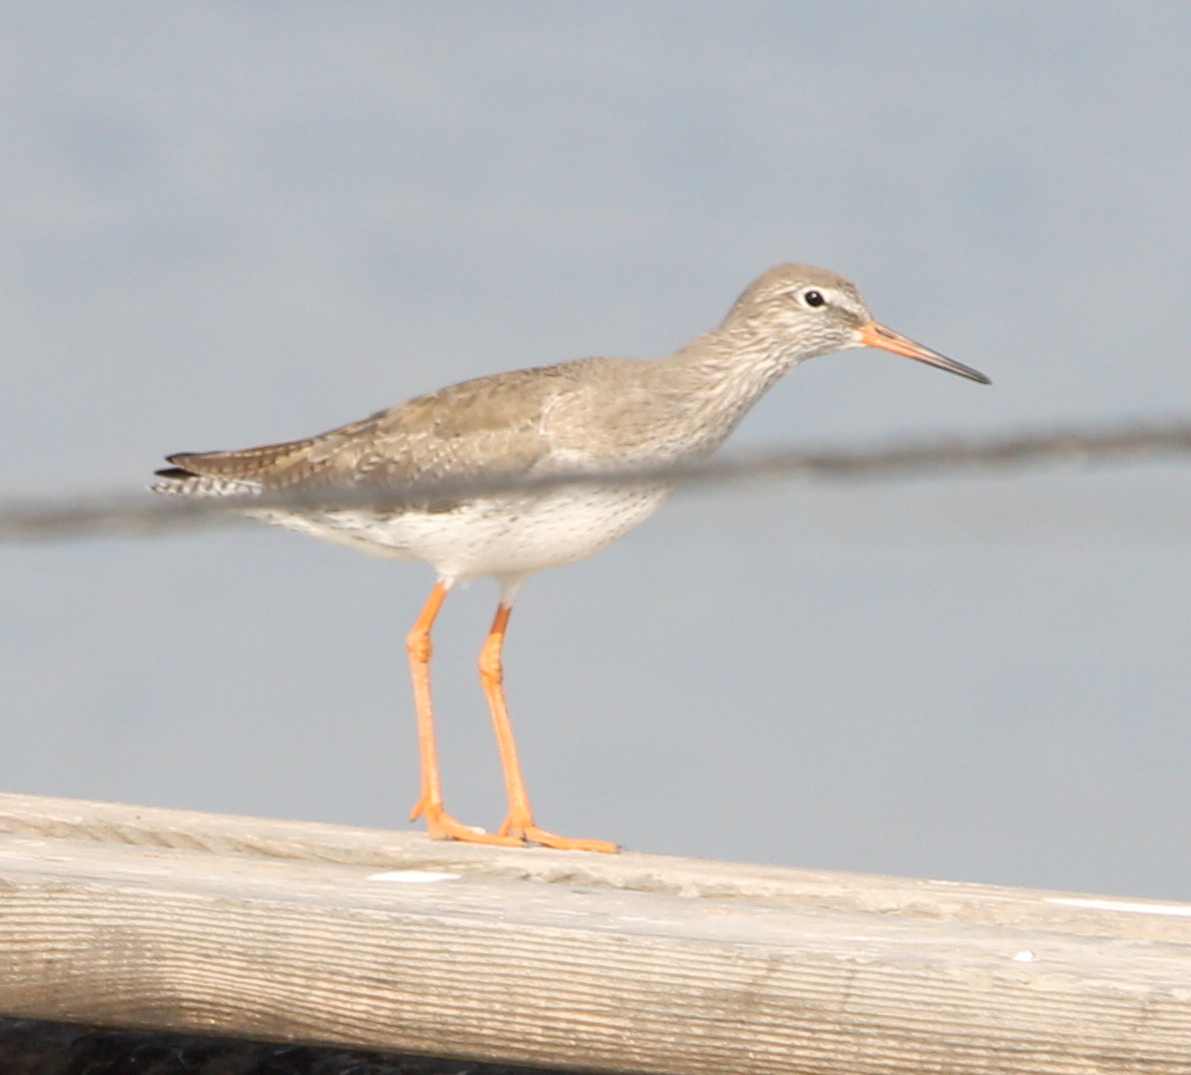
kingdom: Animalia
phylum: Chordata
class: Aves
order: Charadriiformes
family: Scolopacidae
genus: Tringa
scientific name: Tringa totanus
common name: Common redshank
